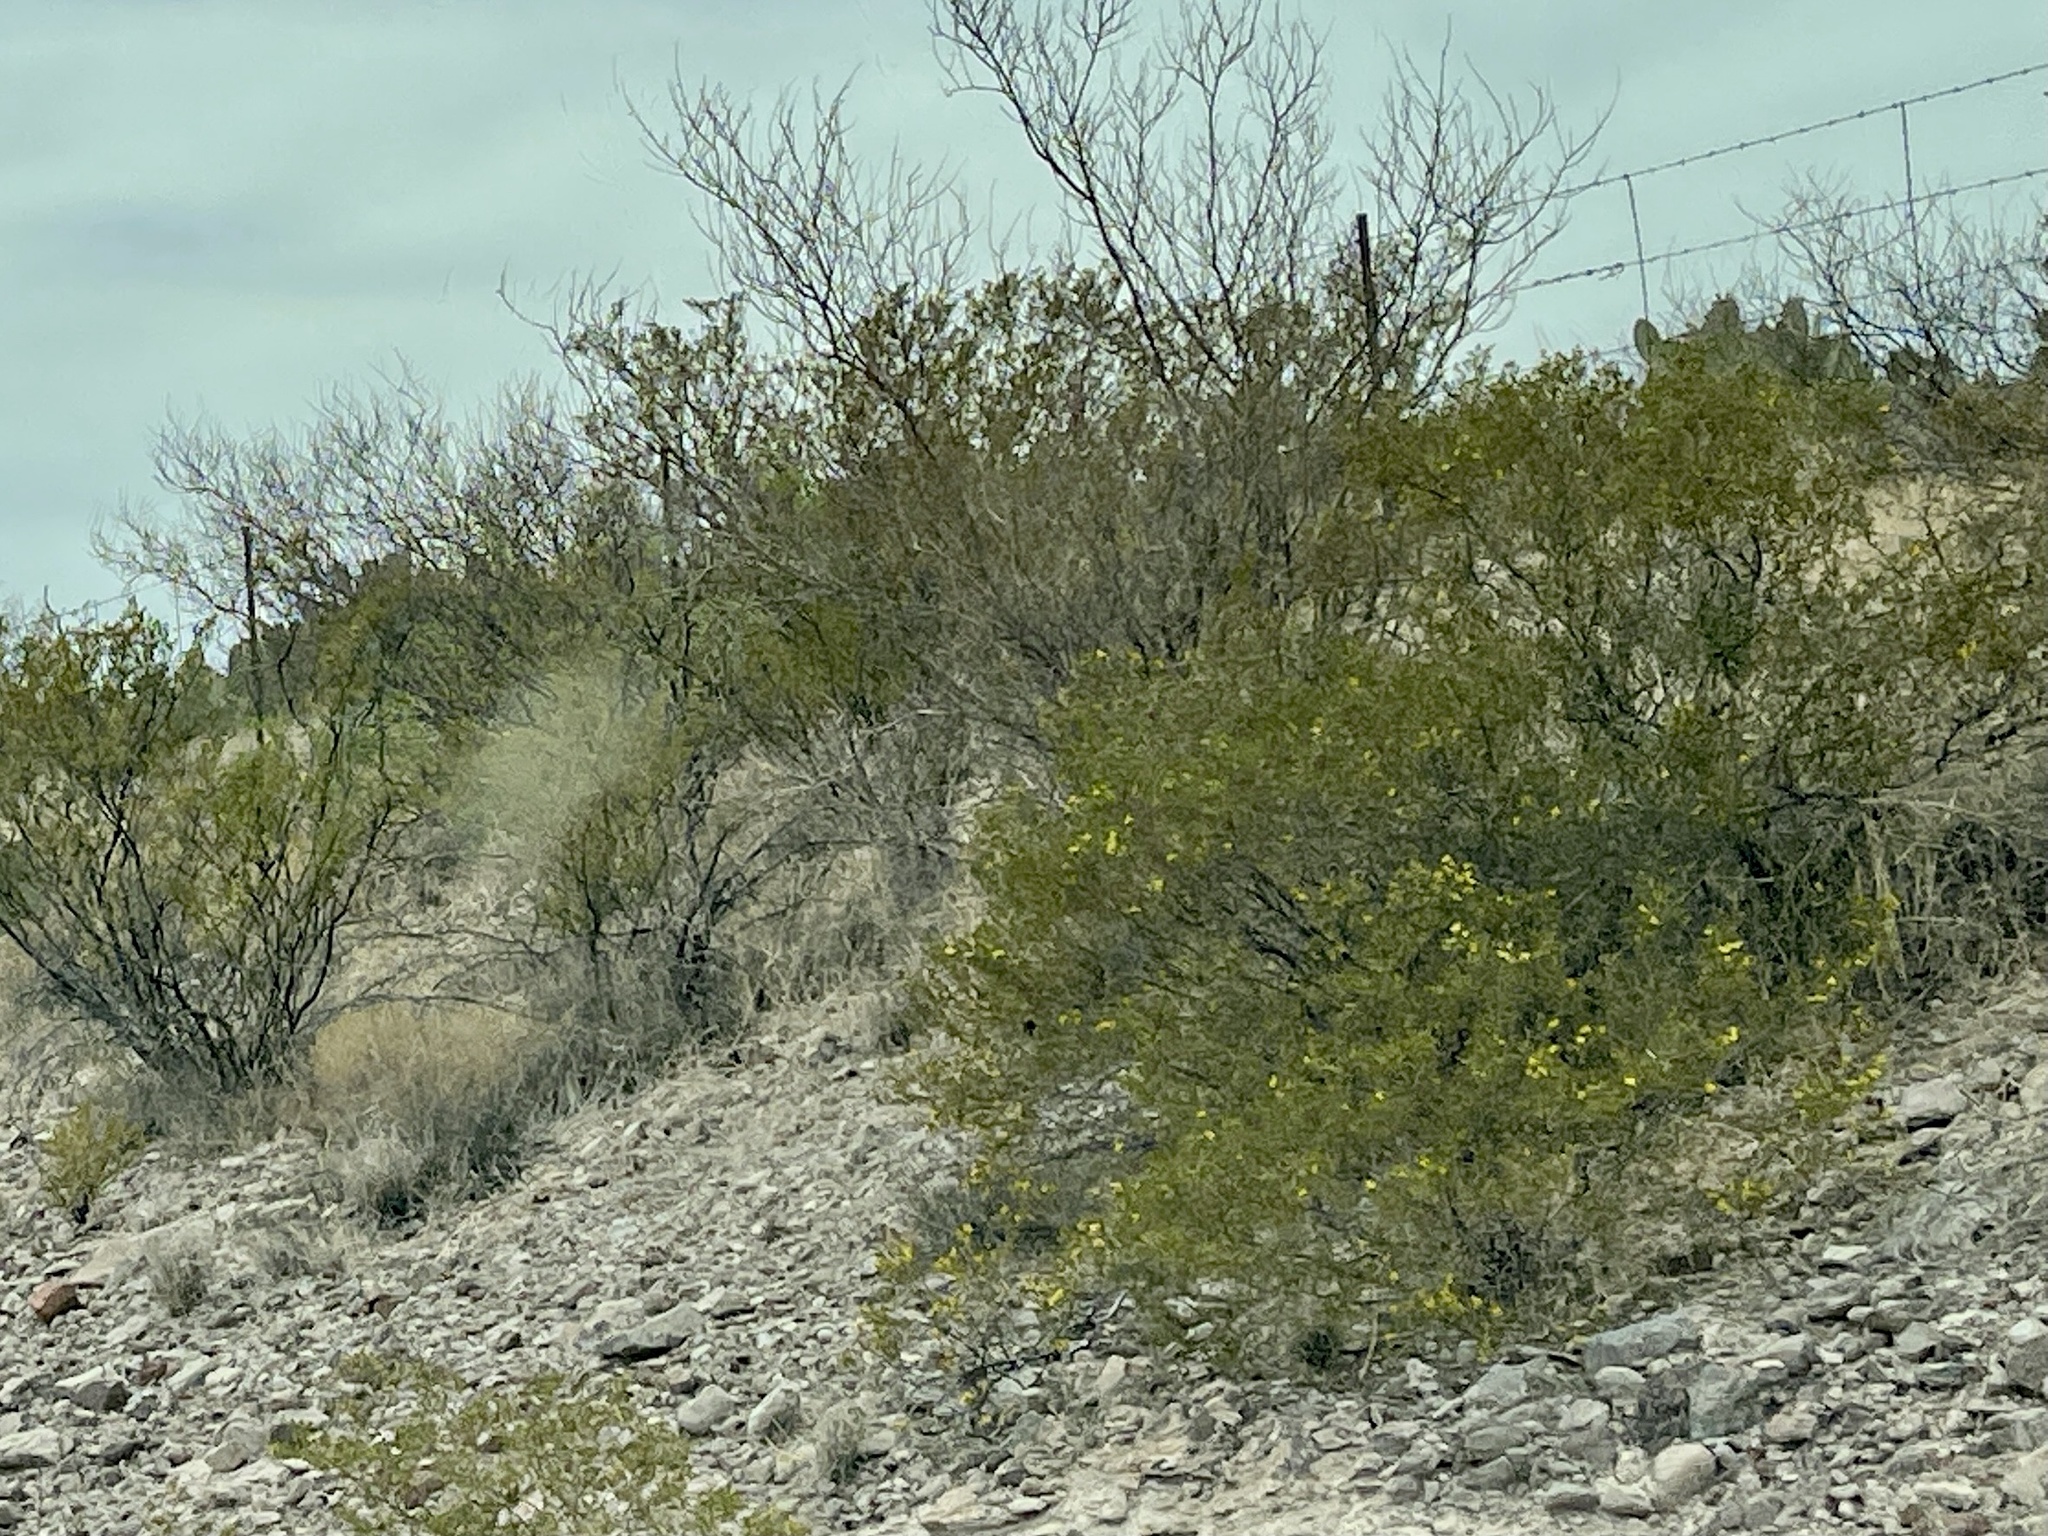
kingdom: Plantae
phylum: Tracheophyta
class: Magnoliopsida
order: Zygophyllales
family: Zygophyllaceae
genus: Larrea
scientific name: Larrea tridentata
